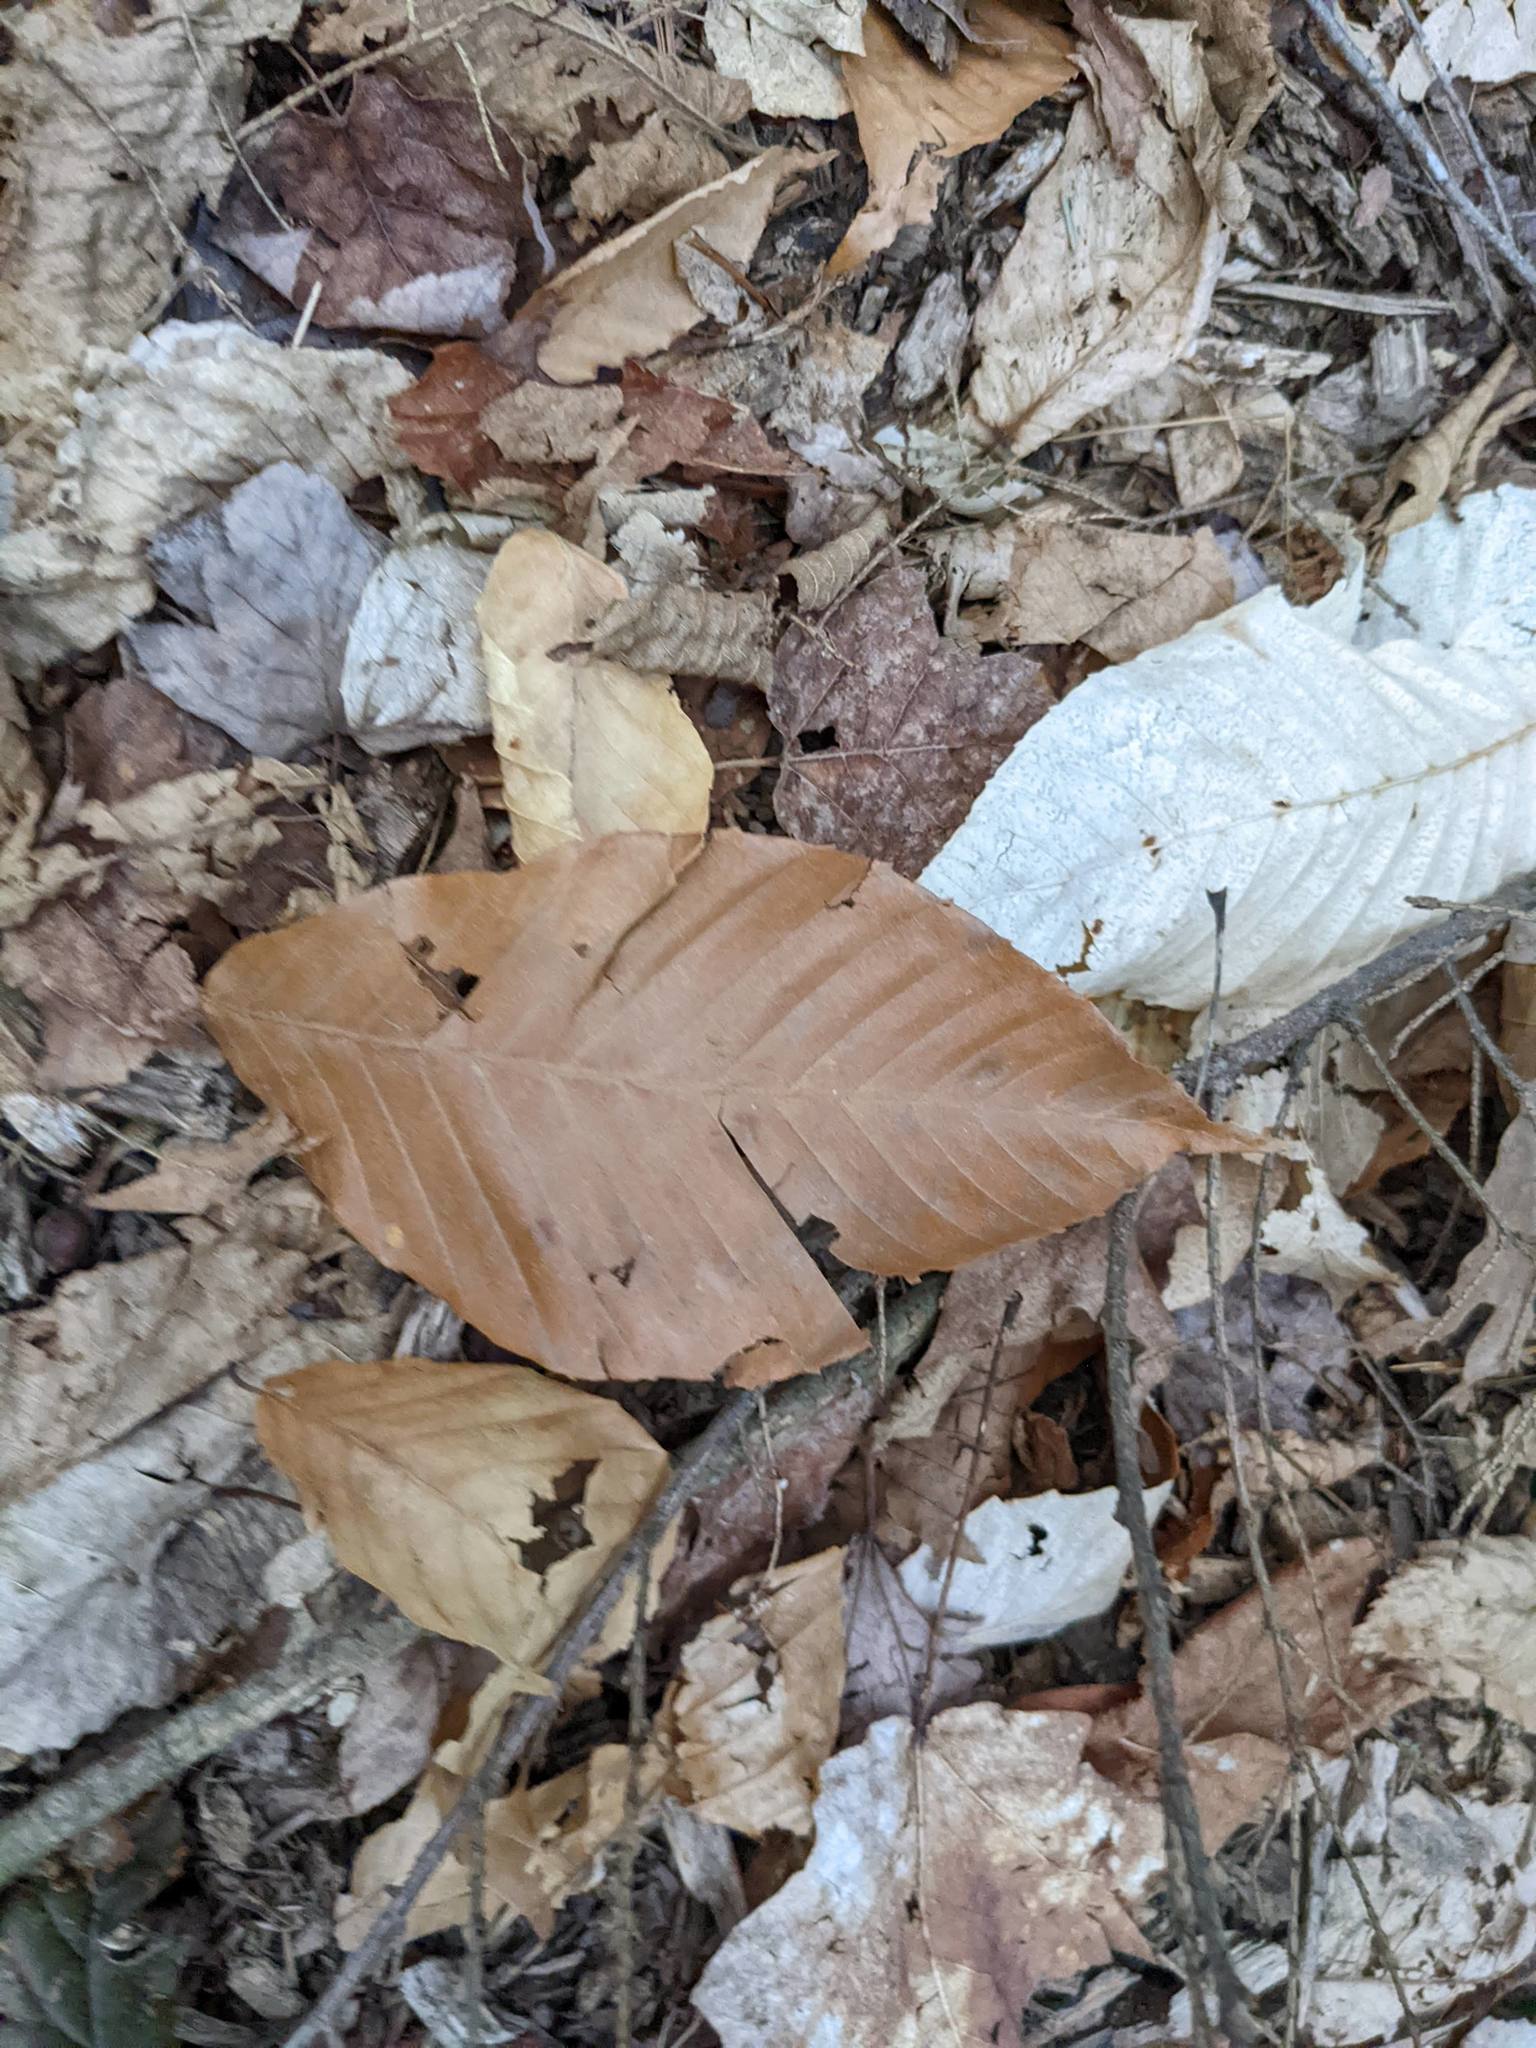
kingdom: Plantae
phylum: Tracheophyta
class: Magnoliopsida
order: Fagales
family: Fagaceae
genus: Fagus
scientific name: Fagus grandifolia
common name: American beech
